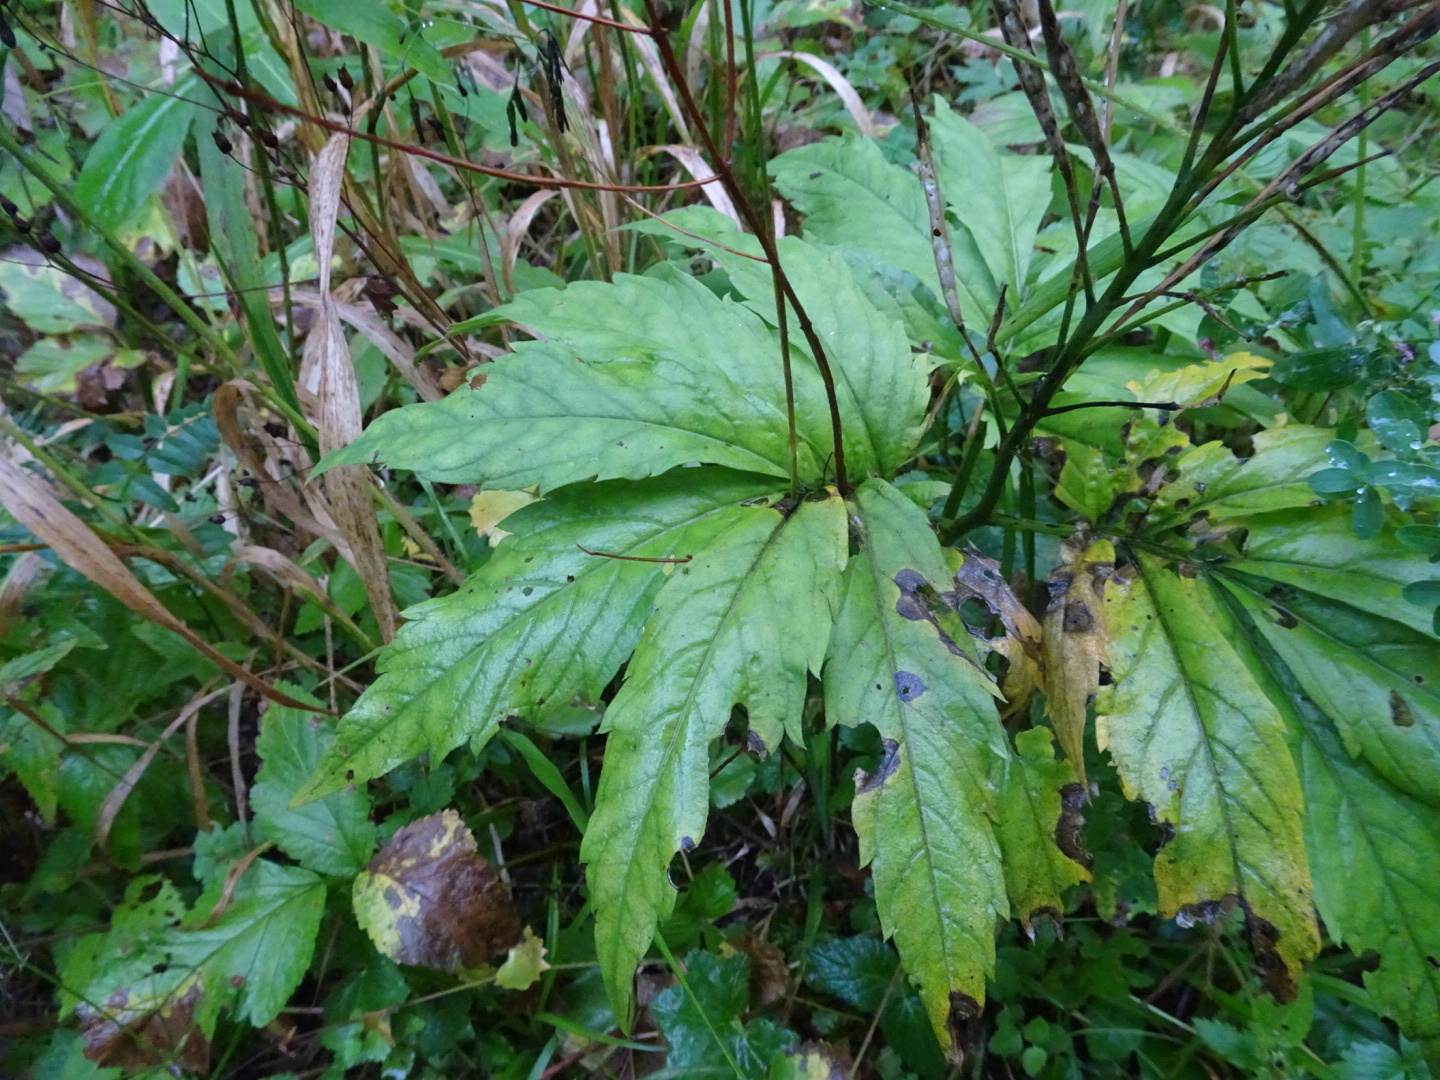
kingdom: Plantae
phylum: Tracheophyta
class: Magnoliopsida
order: Brassicales
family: Brassicaceae
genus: Cardamine
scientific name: Cardamine heptaphylla
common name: Pinnate coralroot
